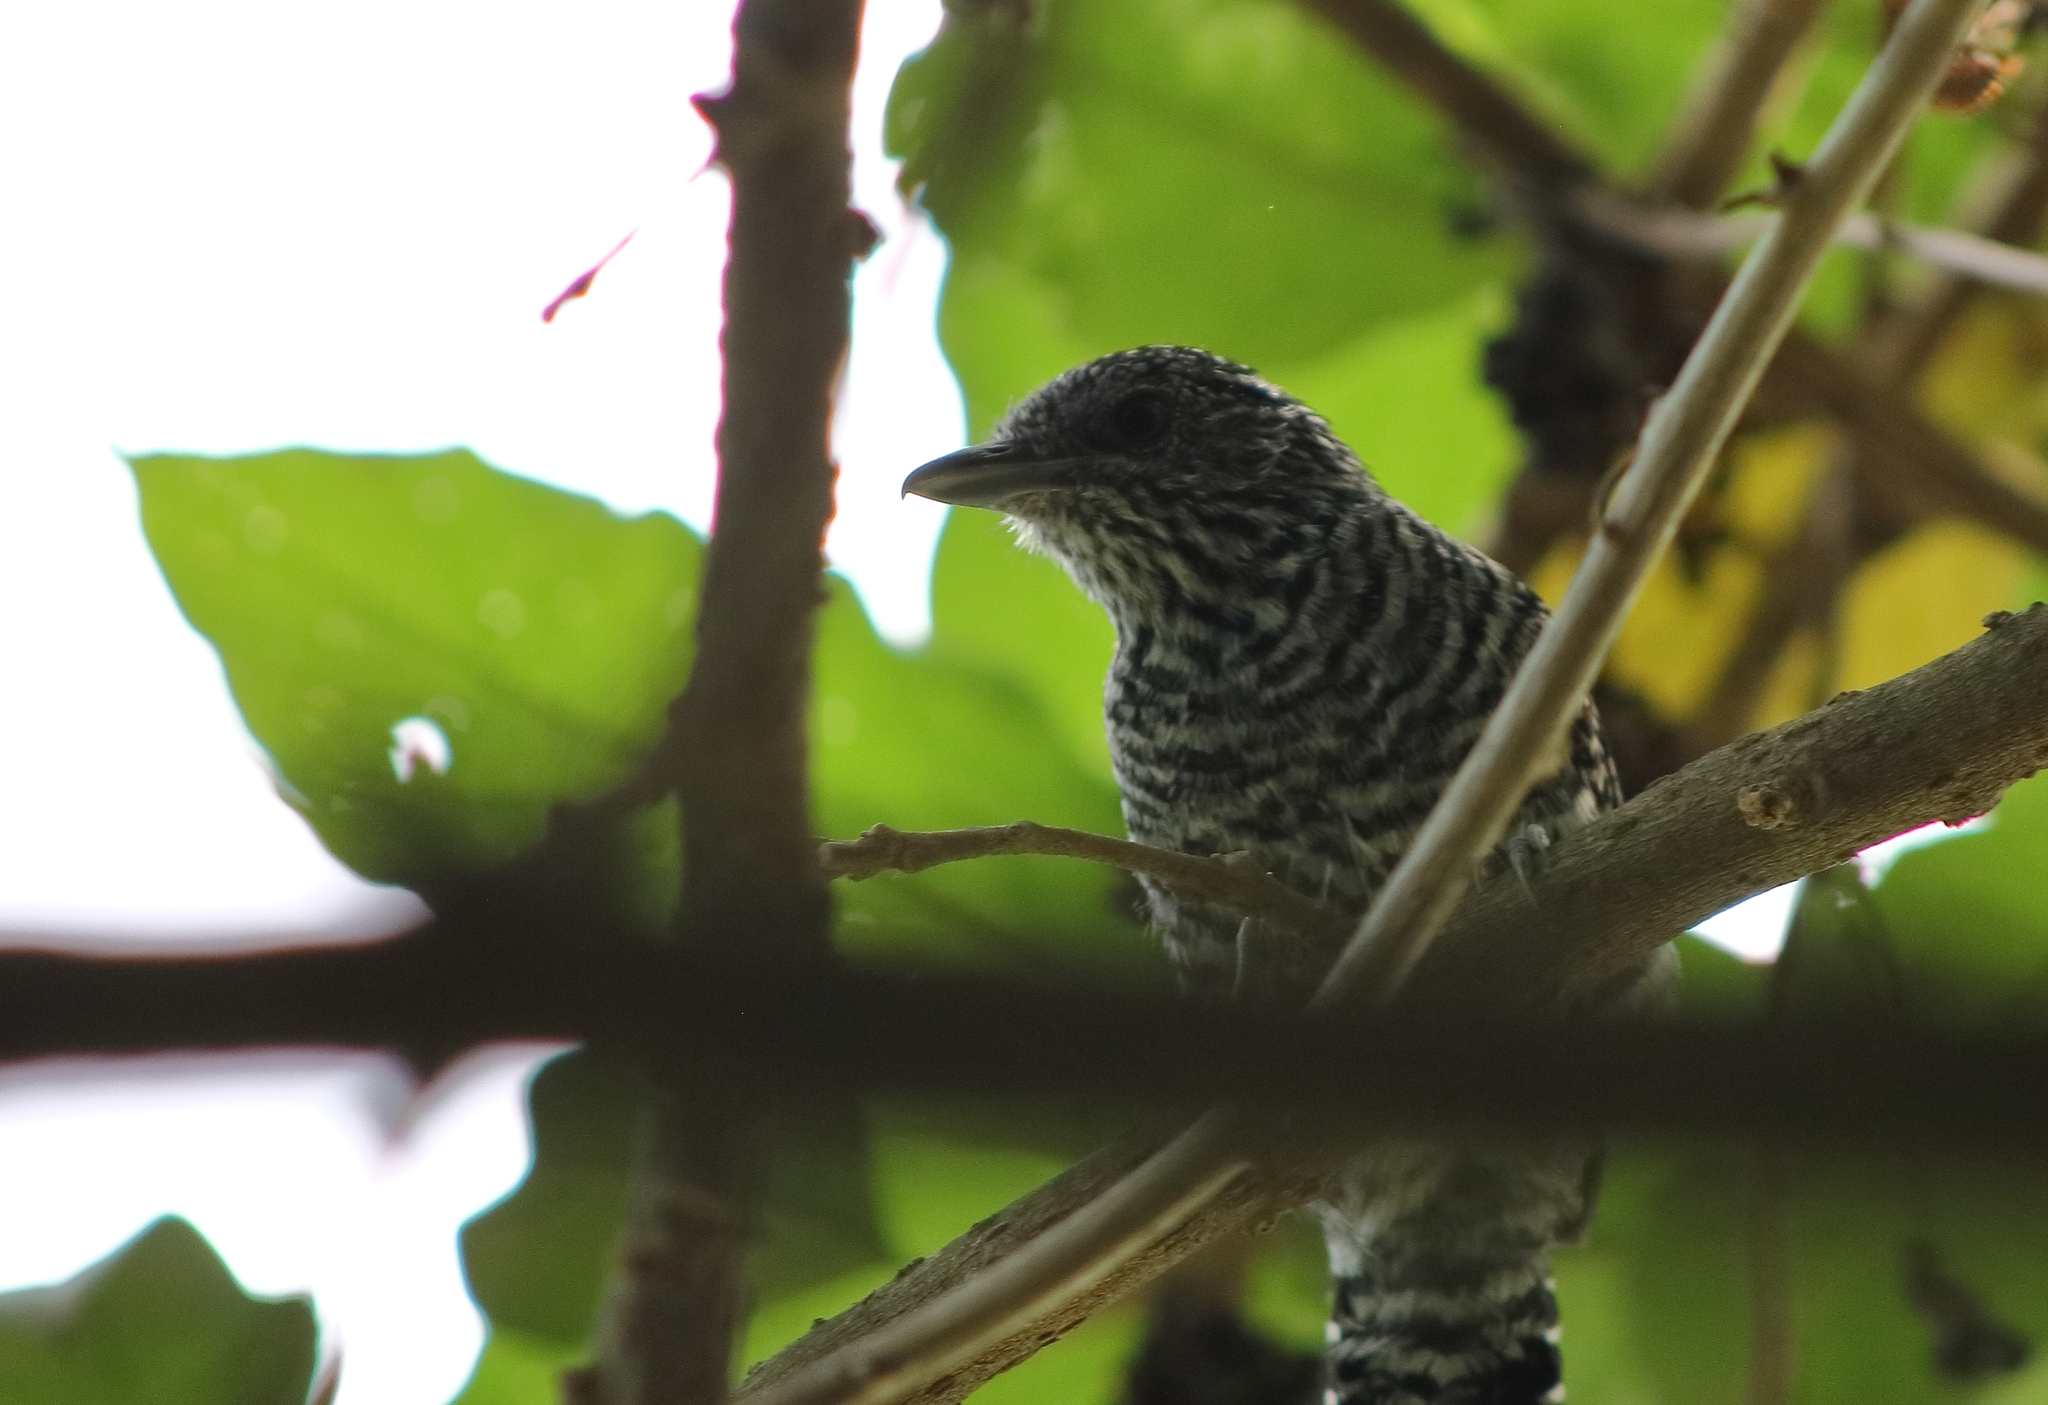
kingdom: Animalia
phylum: Chordata
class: Aves
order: Passeriformes
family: Thamnophilidae
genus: Thamnophilus
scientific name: Thamnophilus multistriatus
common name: Bar-crested antshrike
